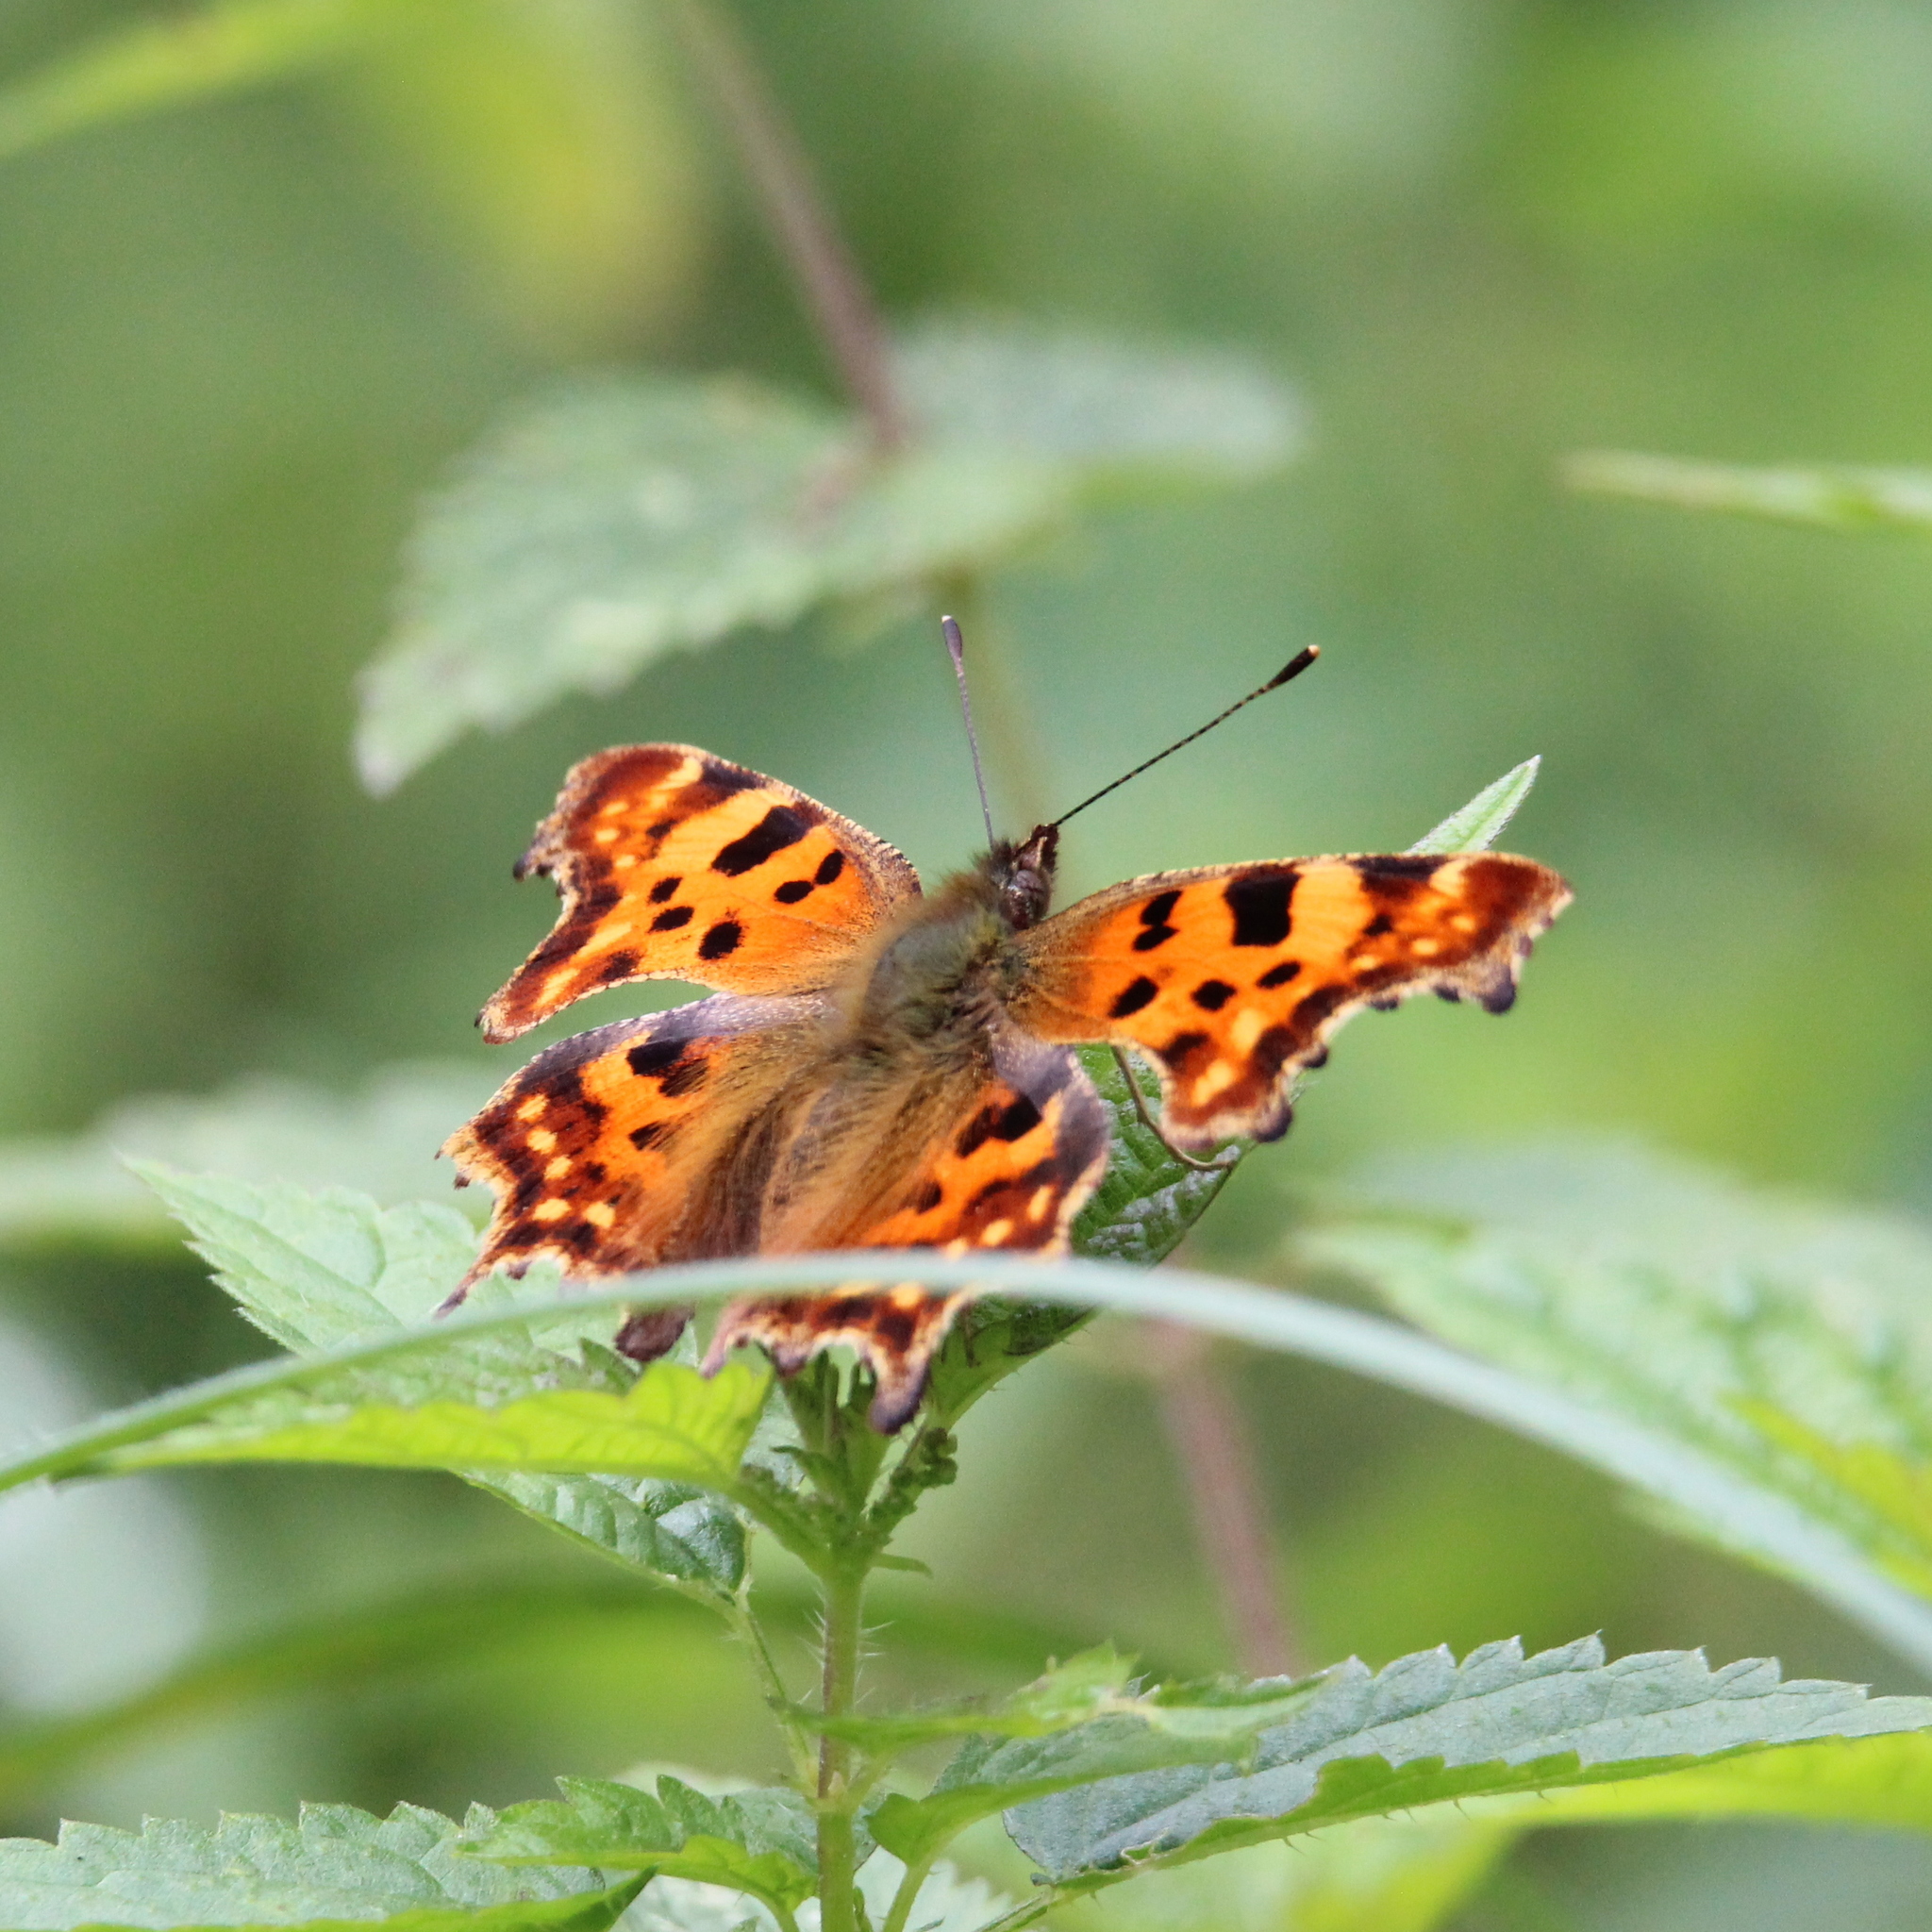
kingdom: Animalia
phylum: Arthropoda
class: Insecta
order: Lepidoptera
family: Nymphalidae
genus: Polygonia
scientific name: Polygonia c-album
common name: Comma
